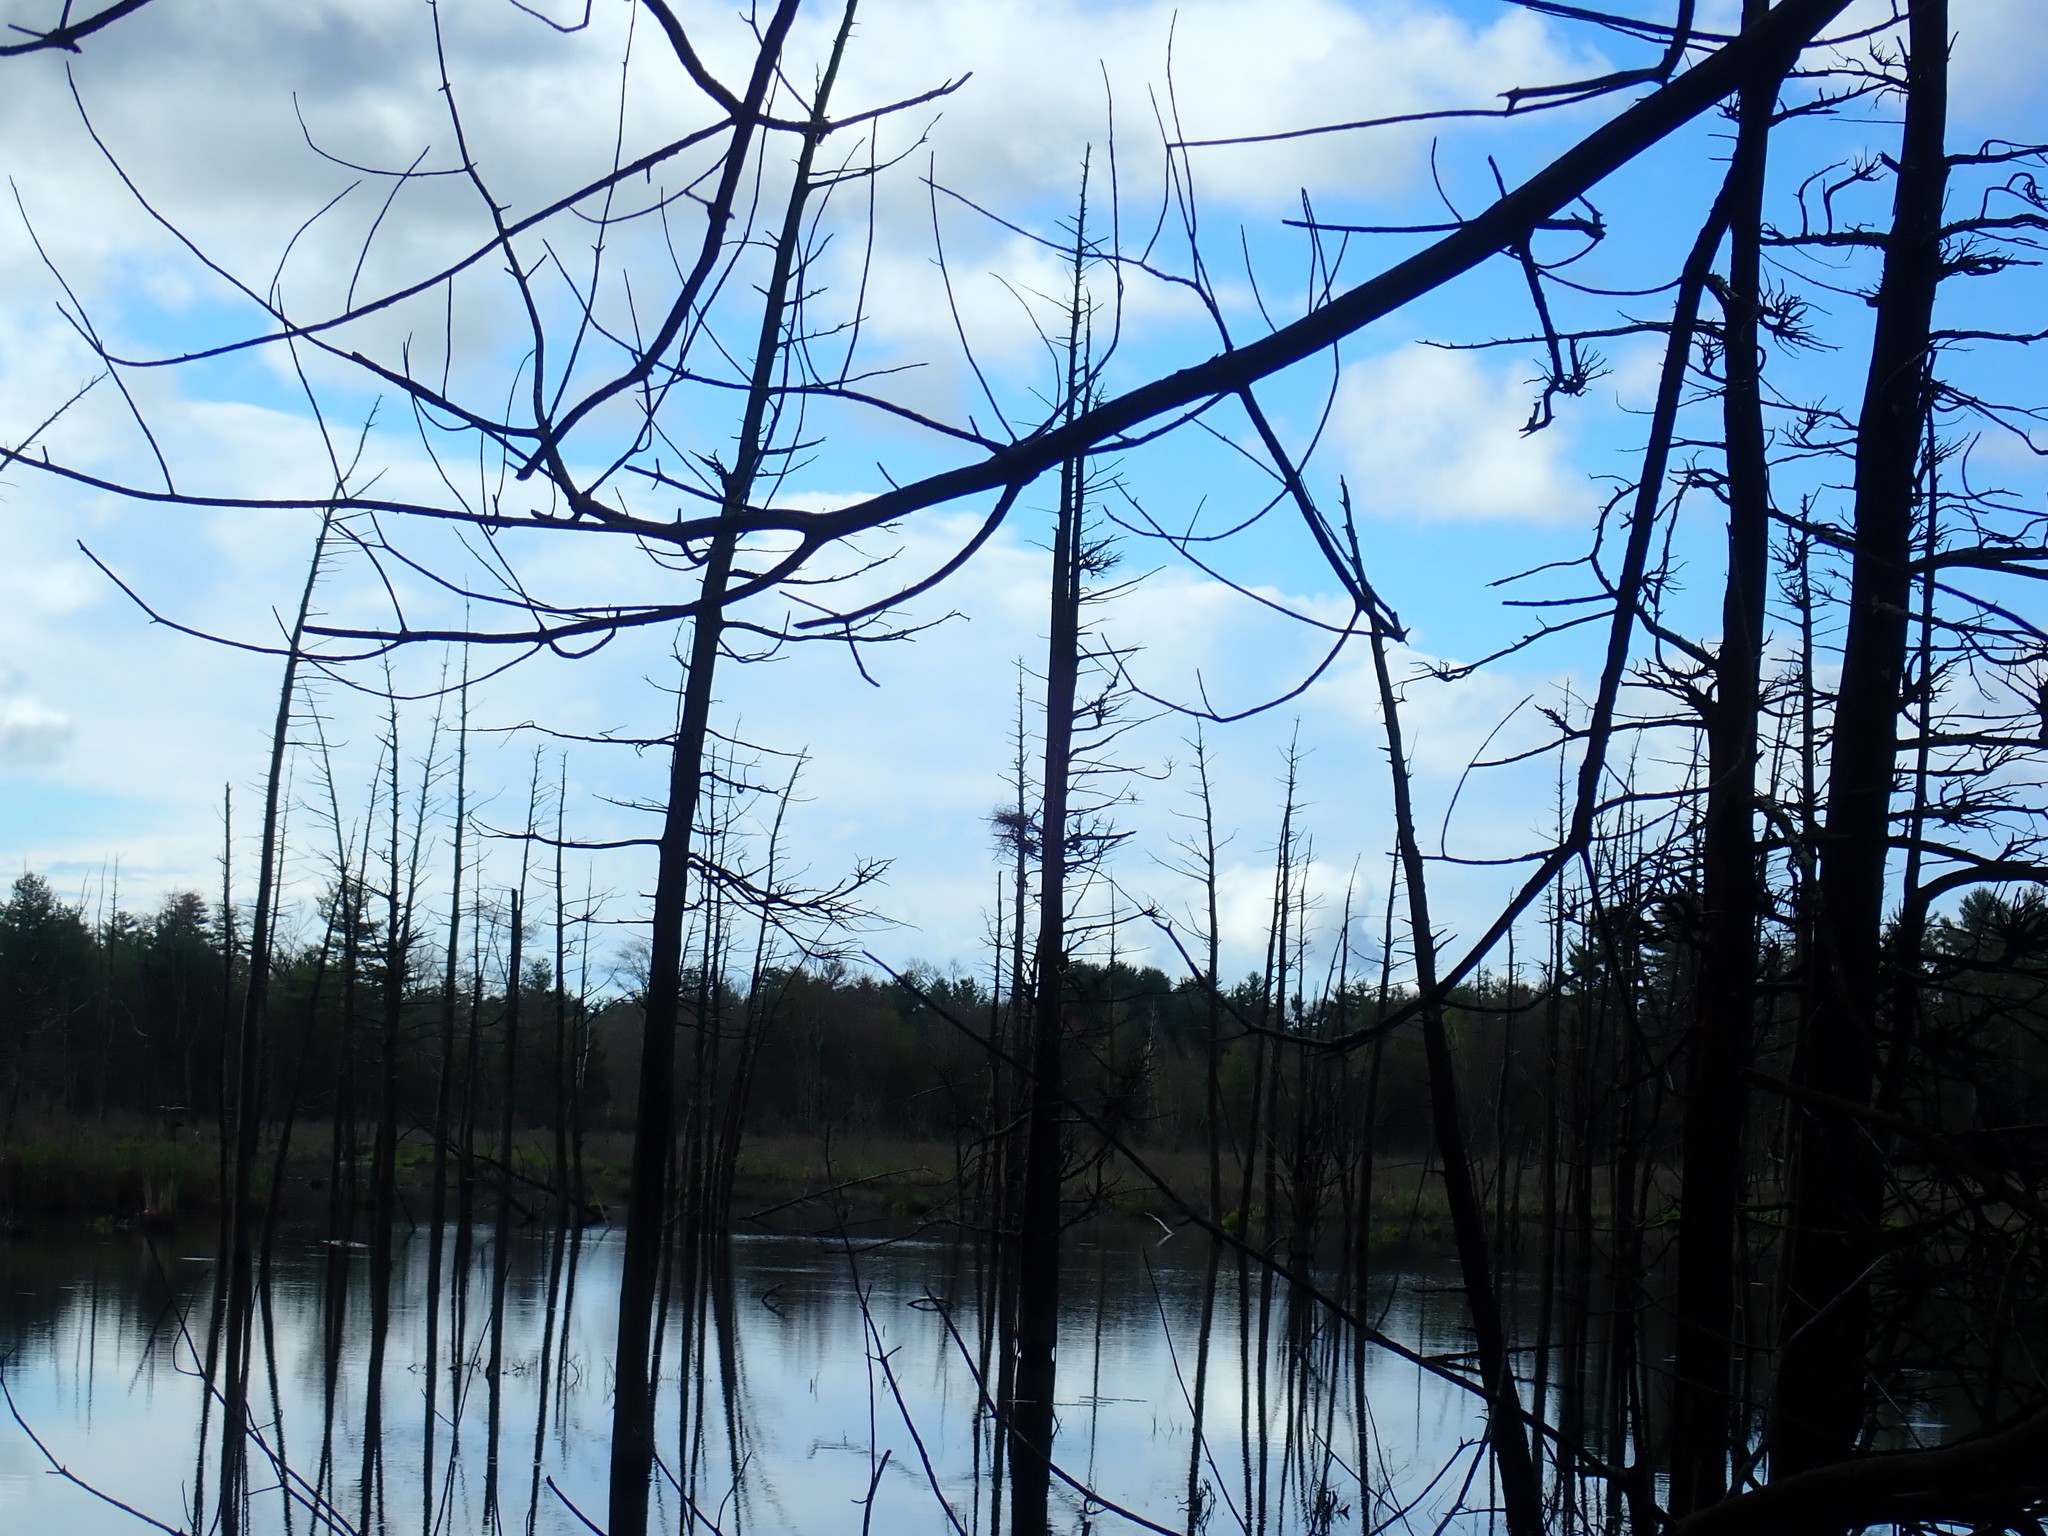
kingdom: Animalia
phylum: Chordata
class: Aves
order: Pelecaniformes
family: Ardeidae
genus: Ardea
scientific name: Ardea herodias
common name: Great blue heron
